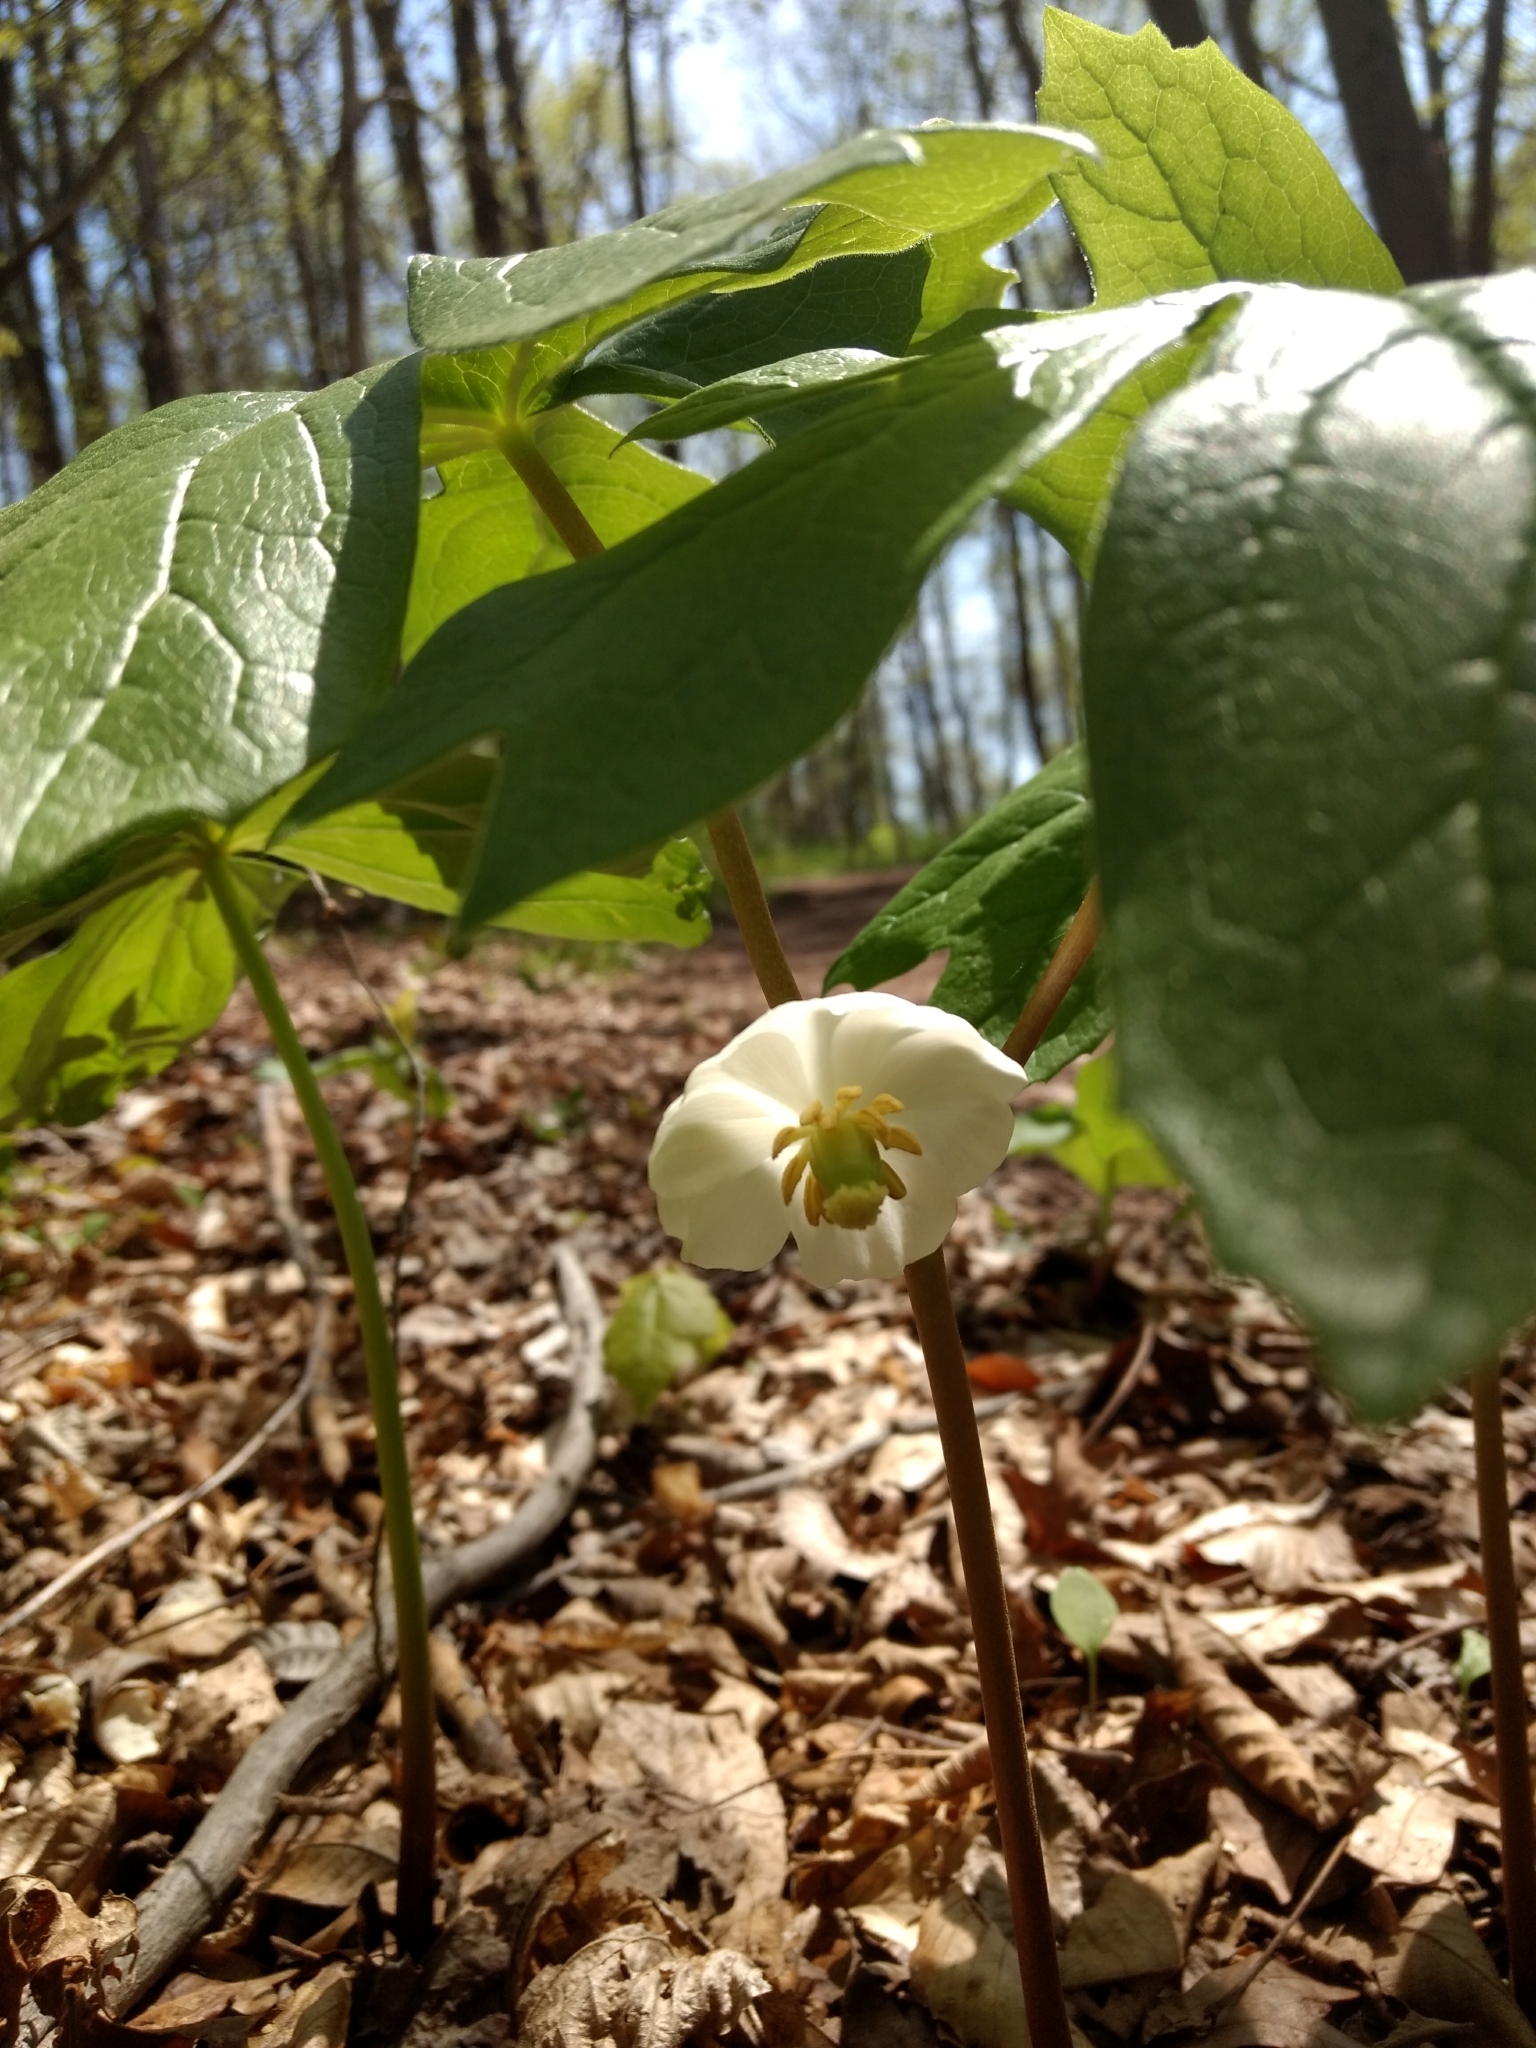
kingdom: Plantae
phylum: Tracheophyta
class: Magnoliopsida
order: Ranunculales
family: Berberidaceae
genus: Podophyllum
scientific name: Podophyllum peltatum
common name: Wild mandrake
